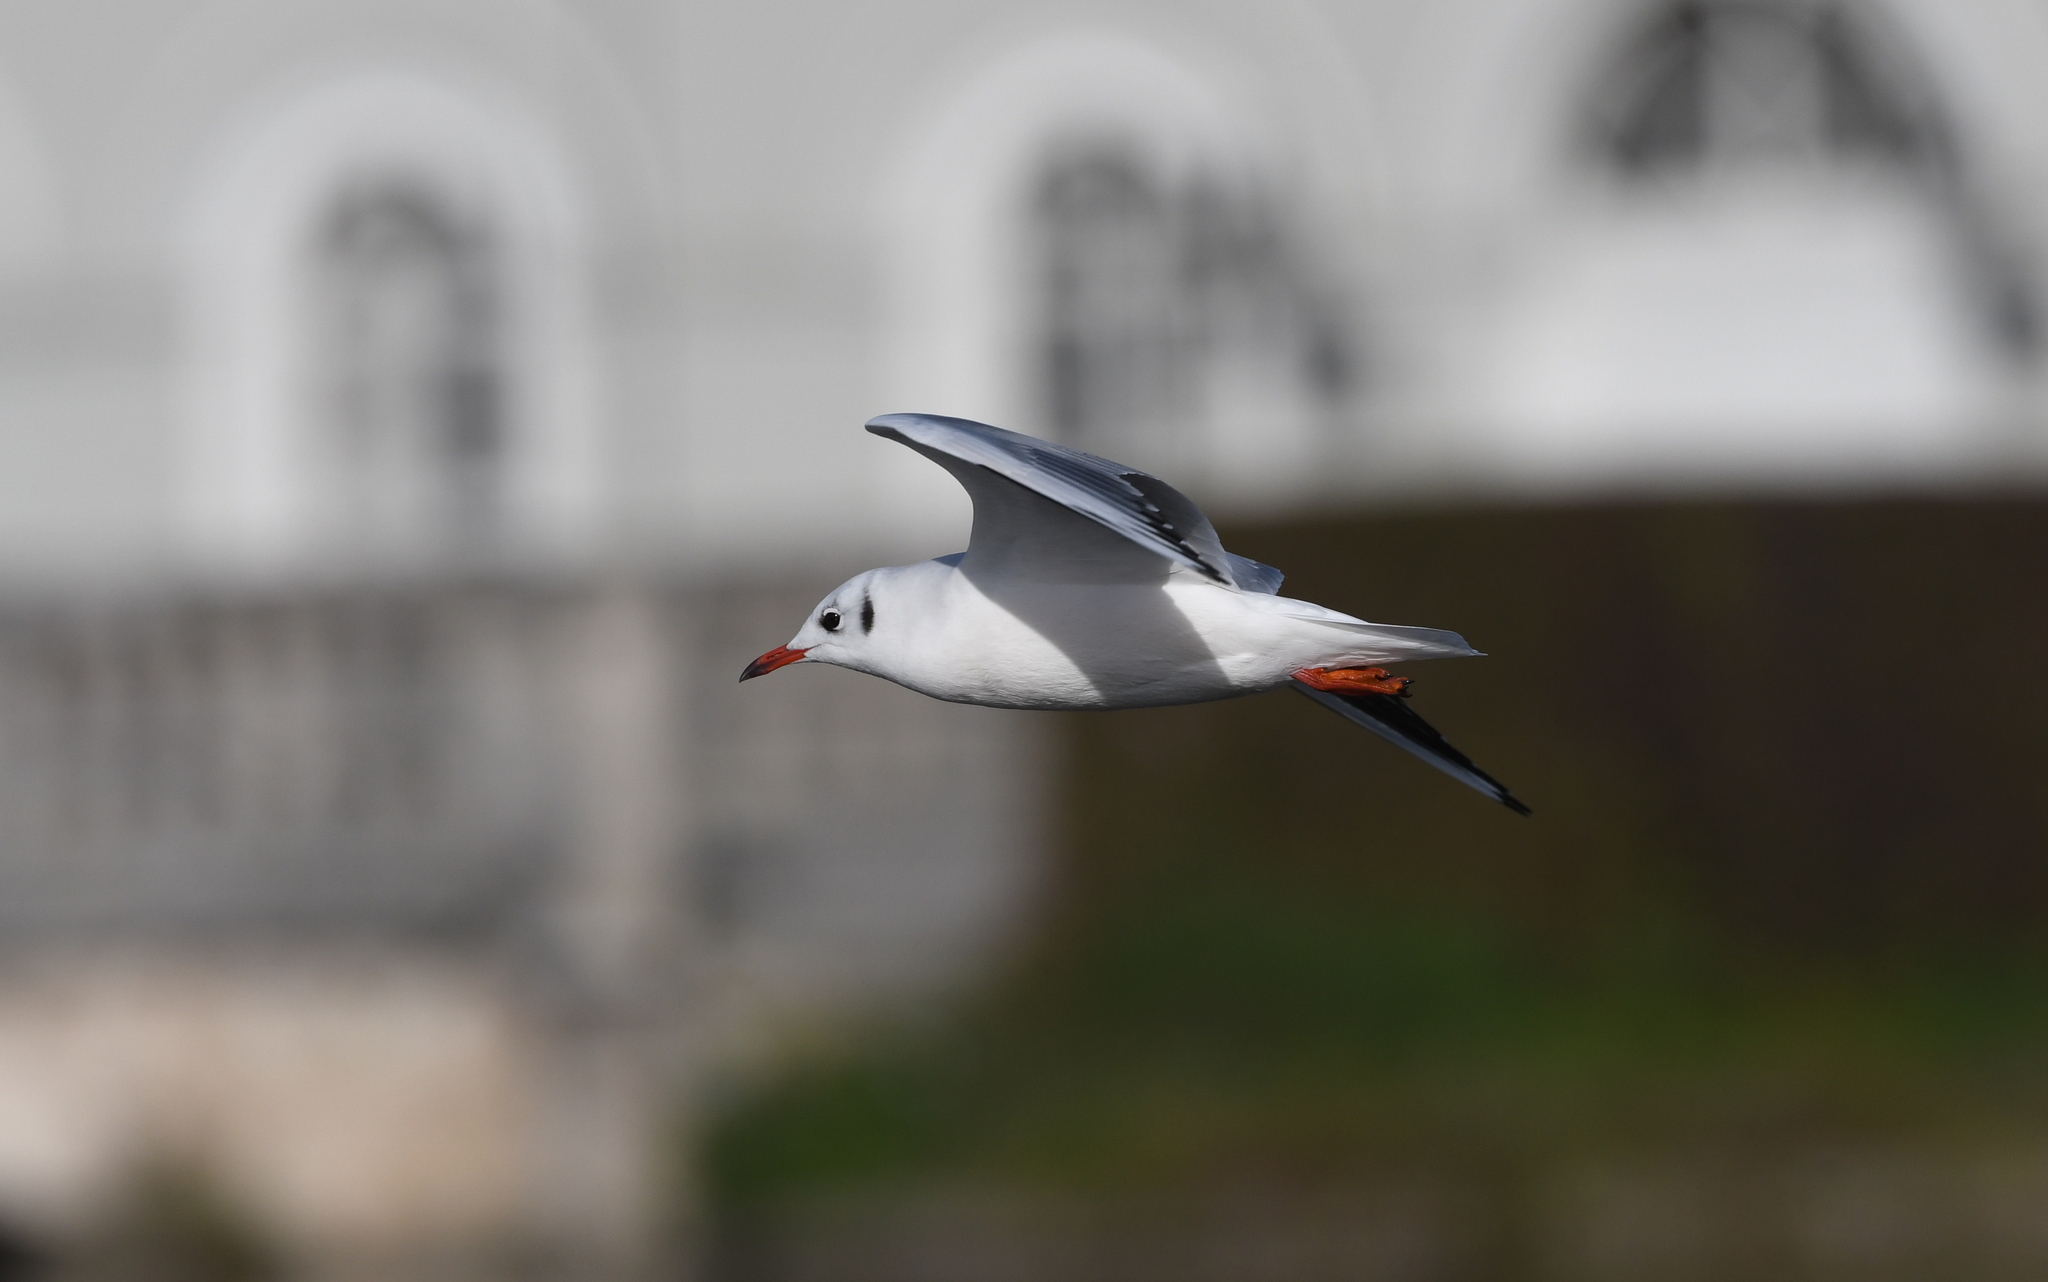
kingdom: Animalia
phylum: Chordata
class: Aves
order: Charadriiformes
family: Laridae
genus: Chroicocephalus
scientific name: Chroicocephalus ridibundus
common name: Black-headed gull
